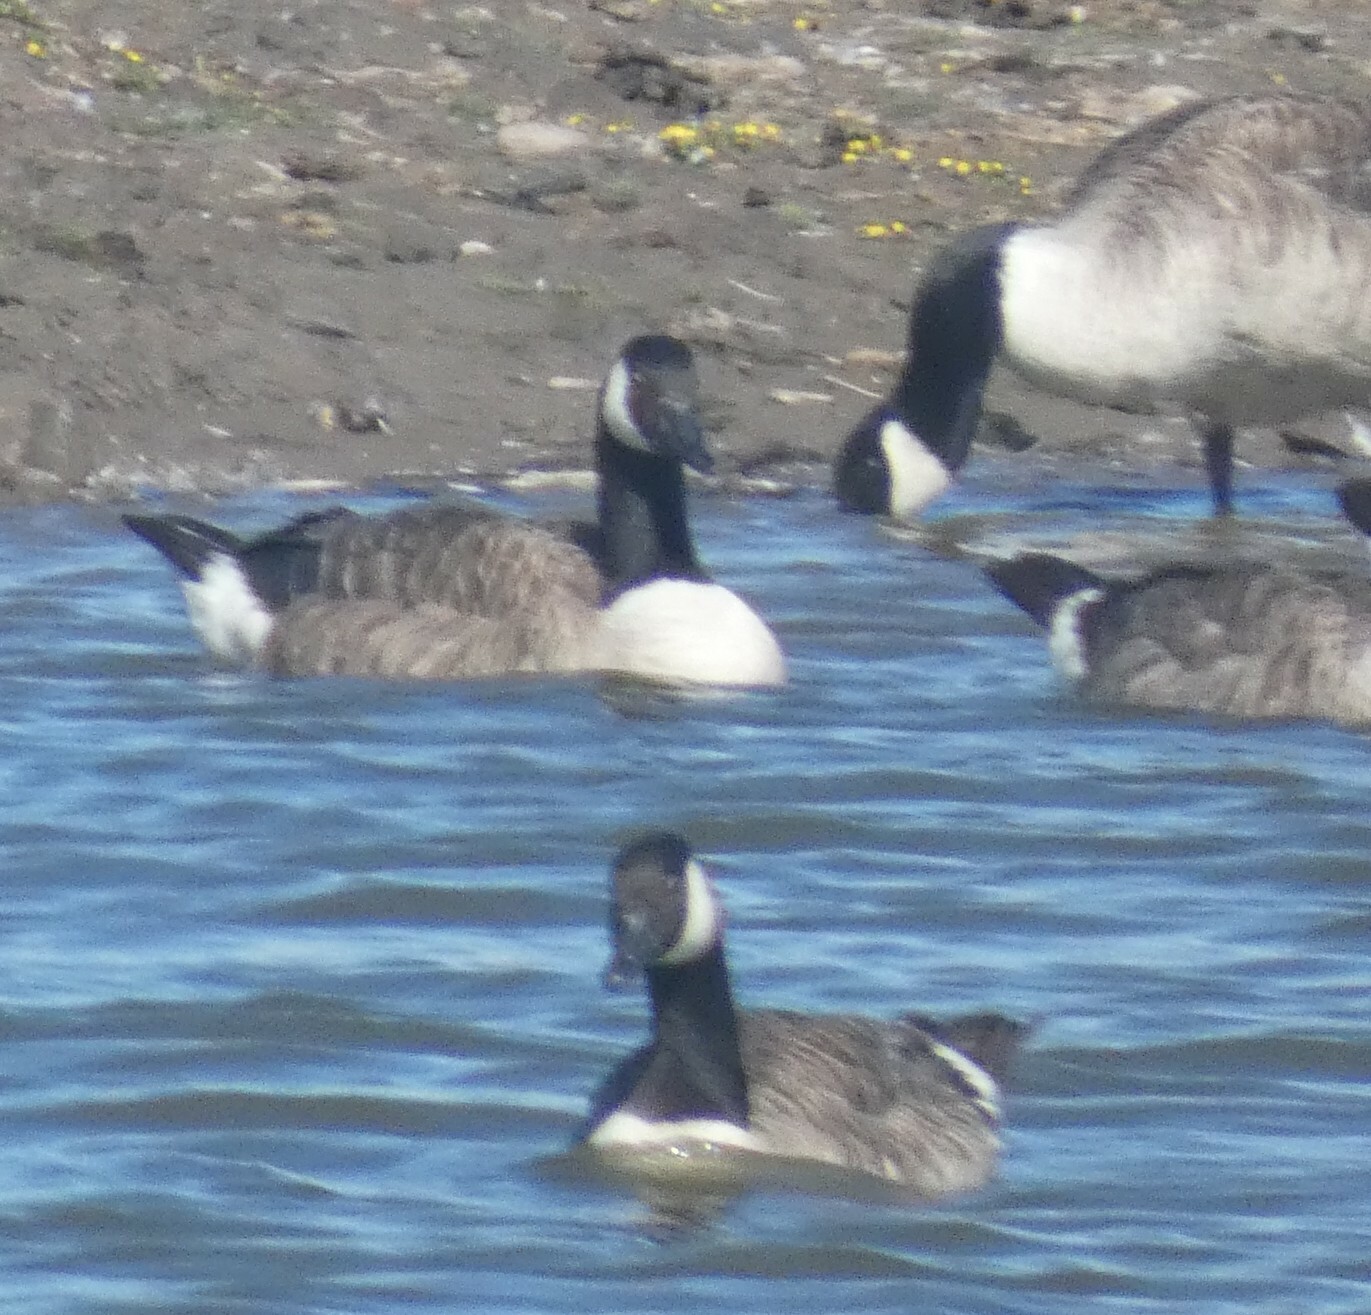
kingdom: Animalia
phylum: Chordata
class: Aves
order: Anseriformes
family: Anatidae
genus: Branta
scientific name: Branta canadensis
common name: Canada goose
